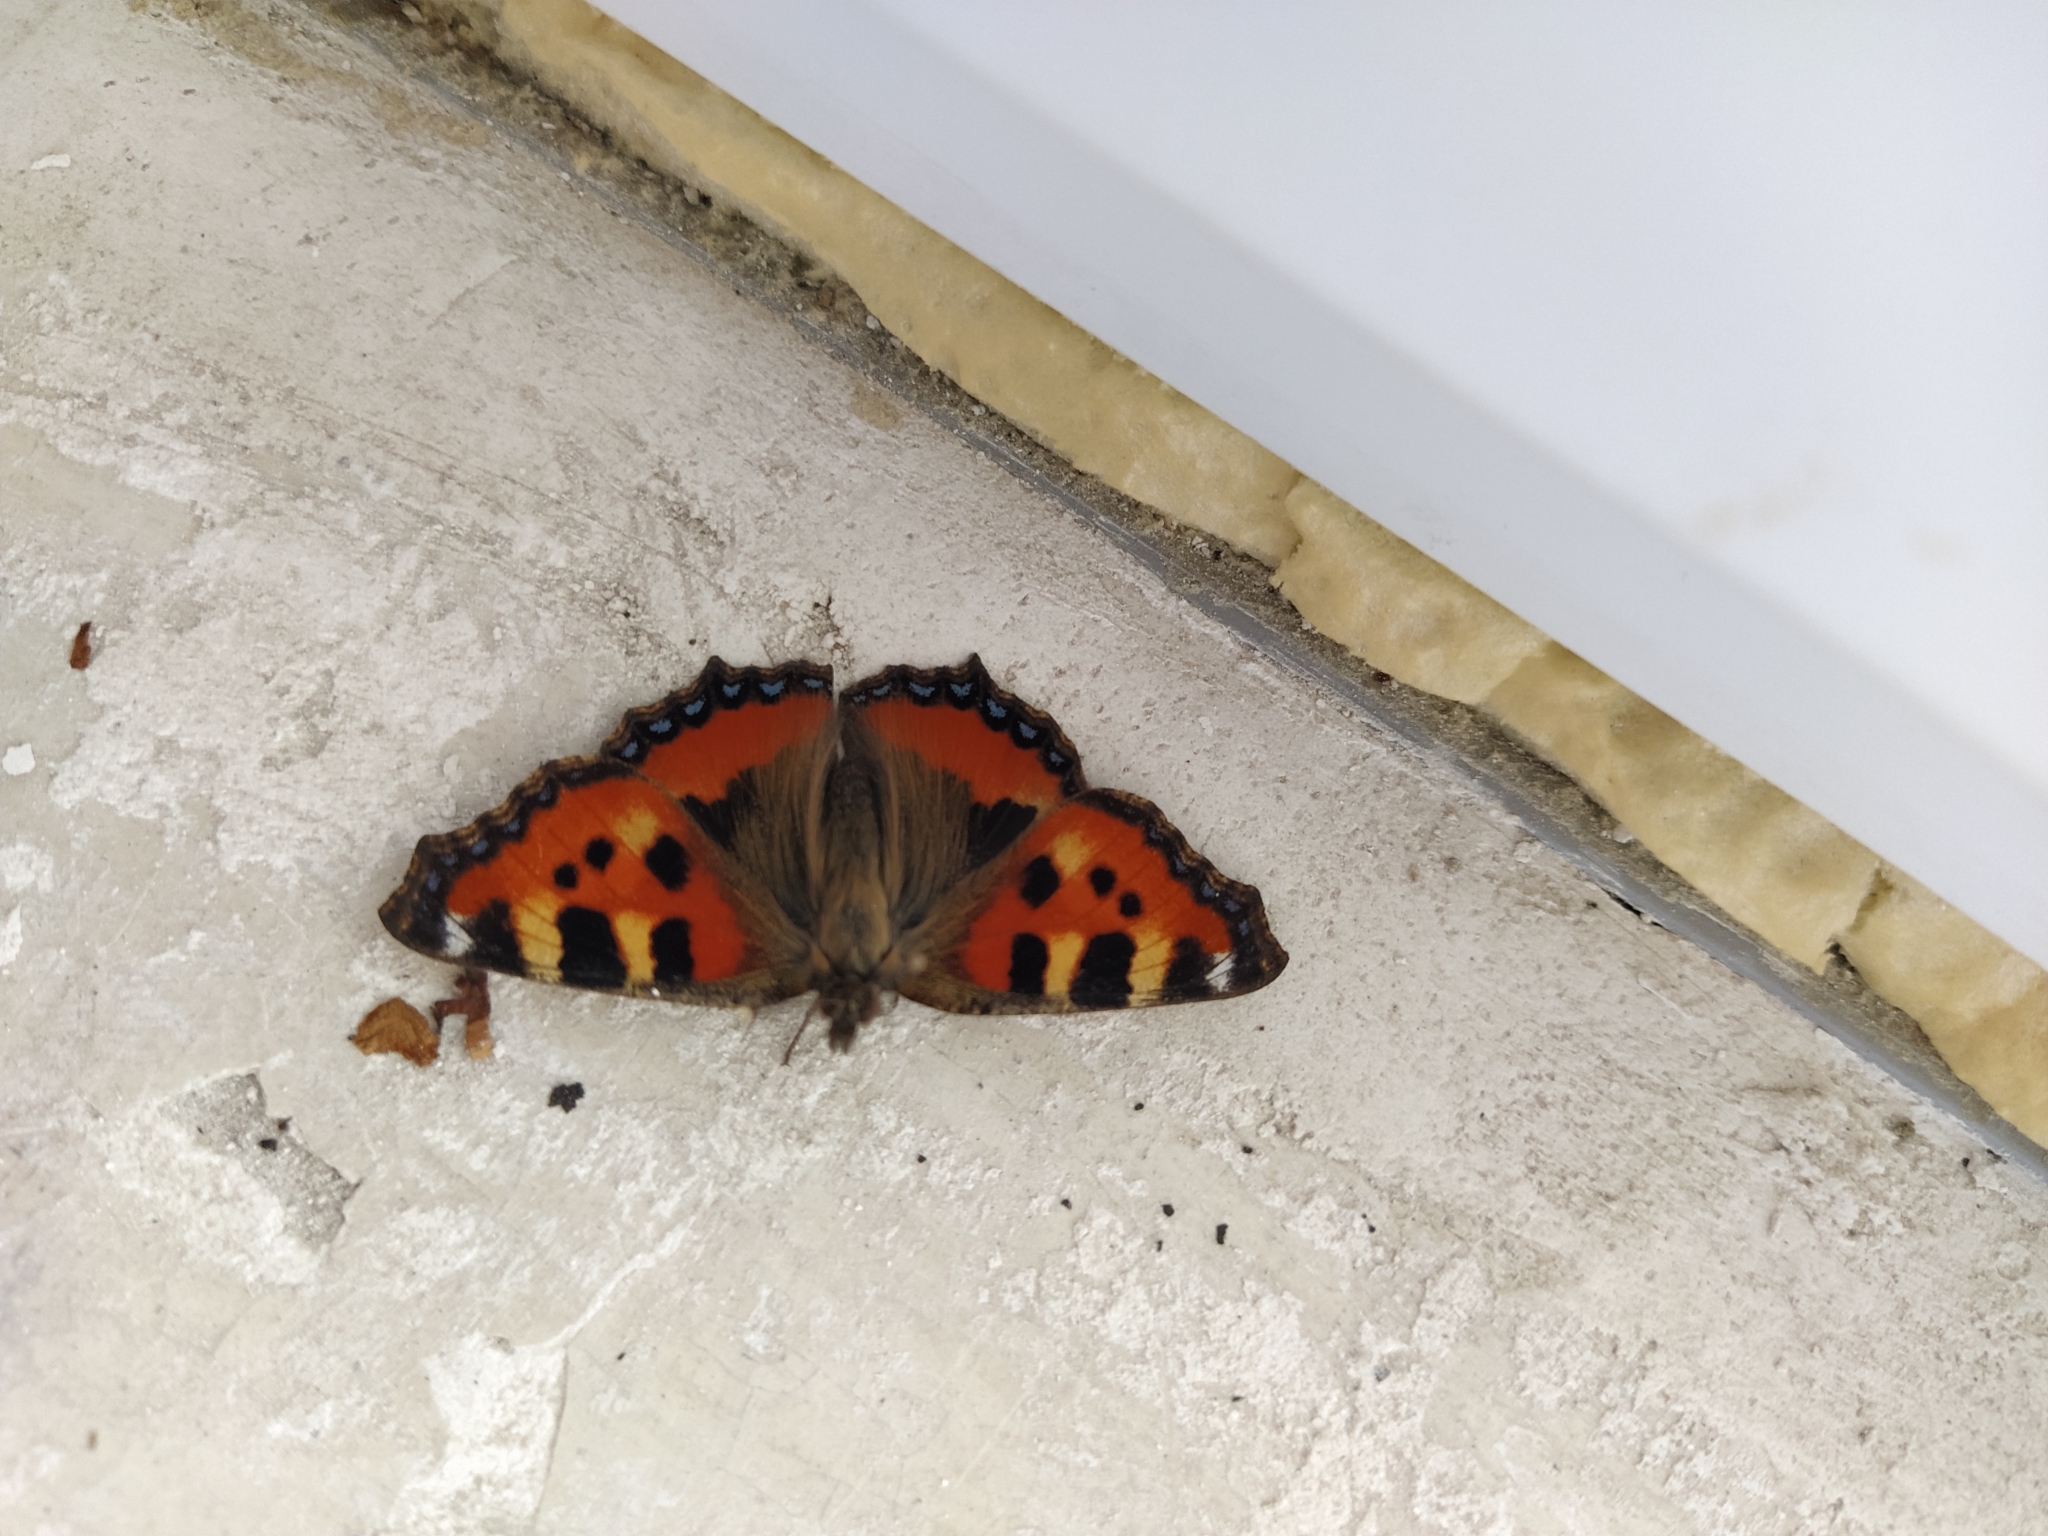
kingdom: Animalia
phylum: Arthropoda
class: Insecta
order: Lepidoptera
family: Nymphalidae
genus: Aglais
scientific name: Aglais urticae
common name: Small tortoiseshell
